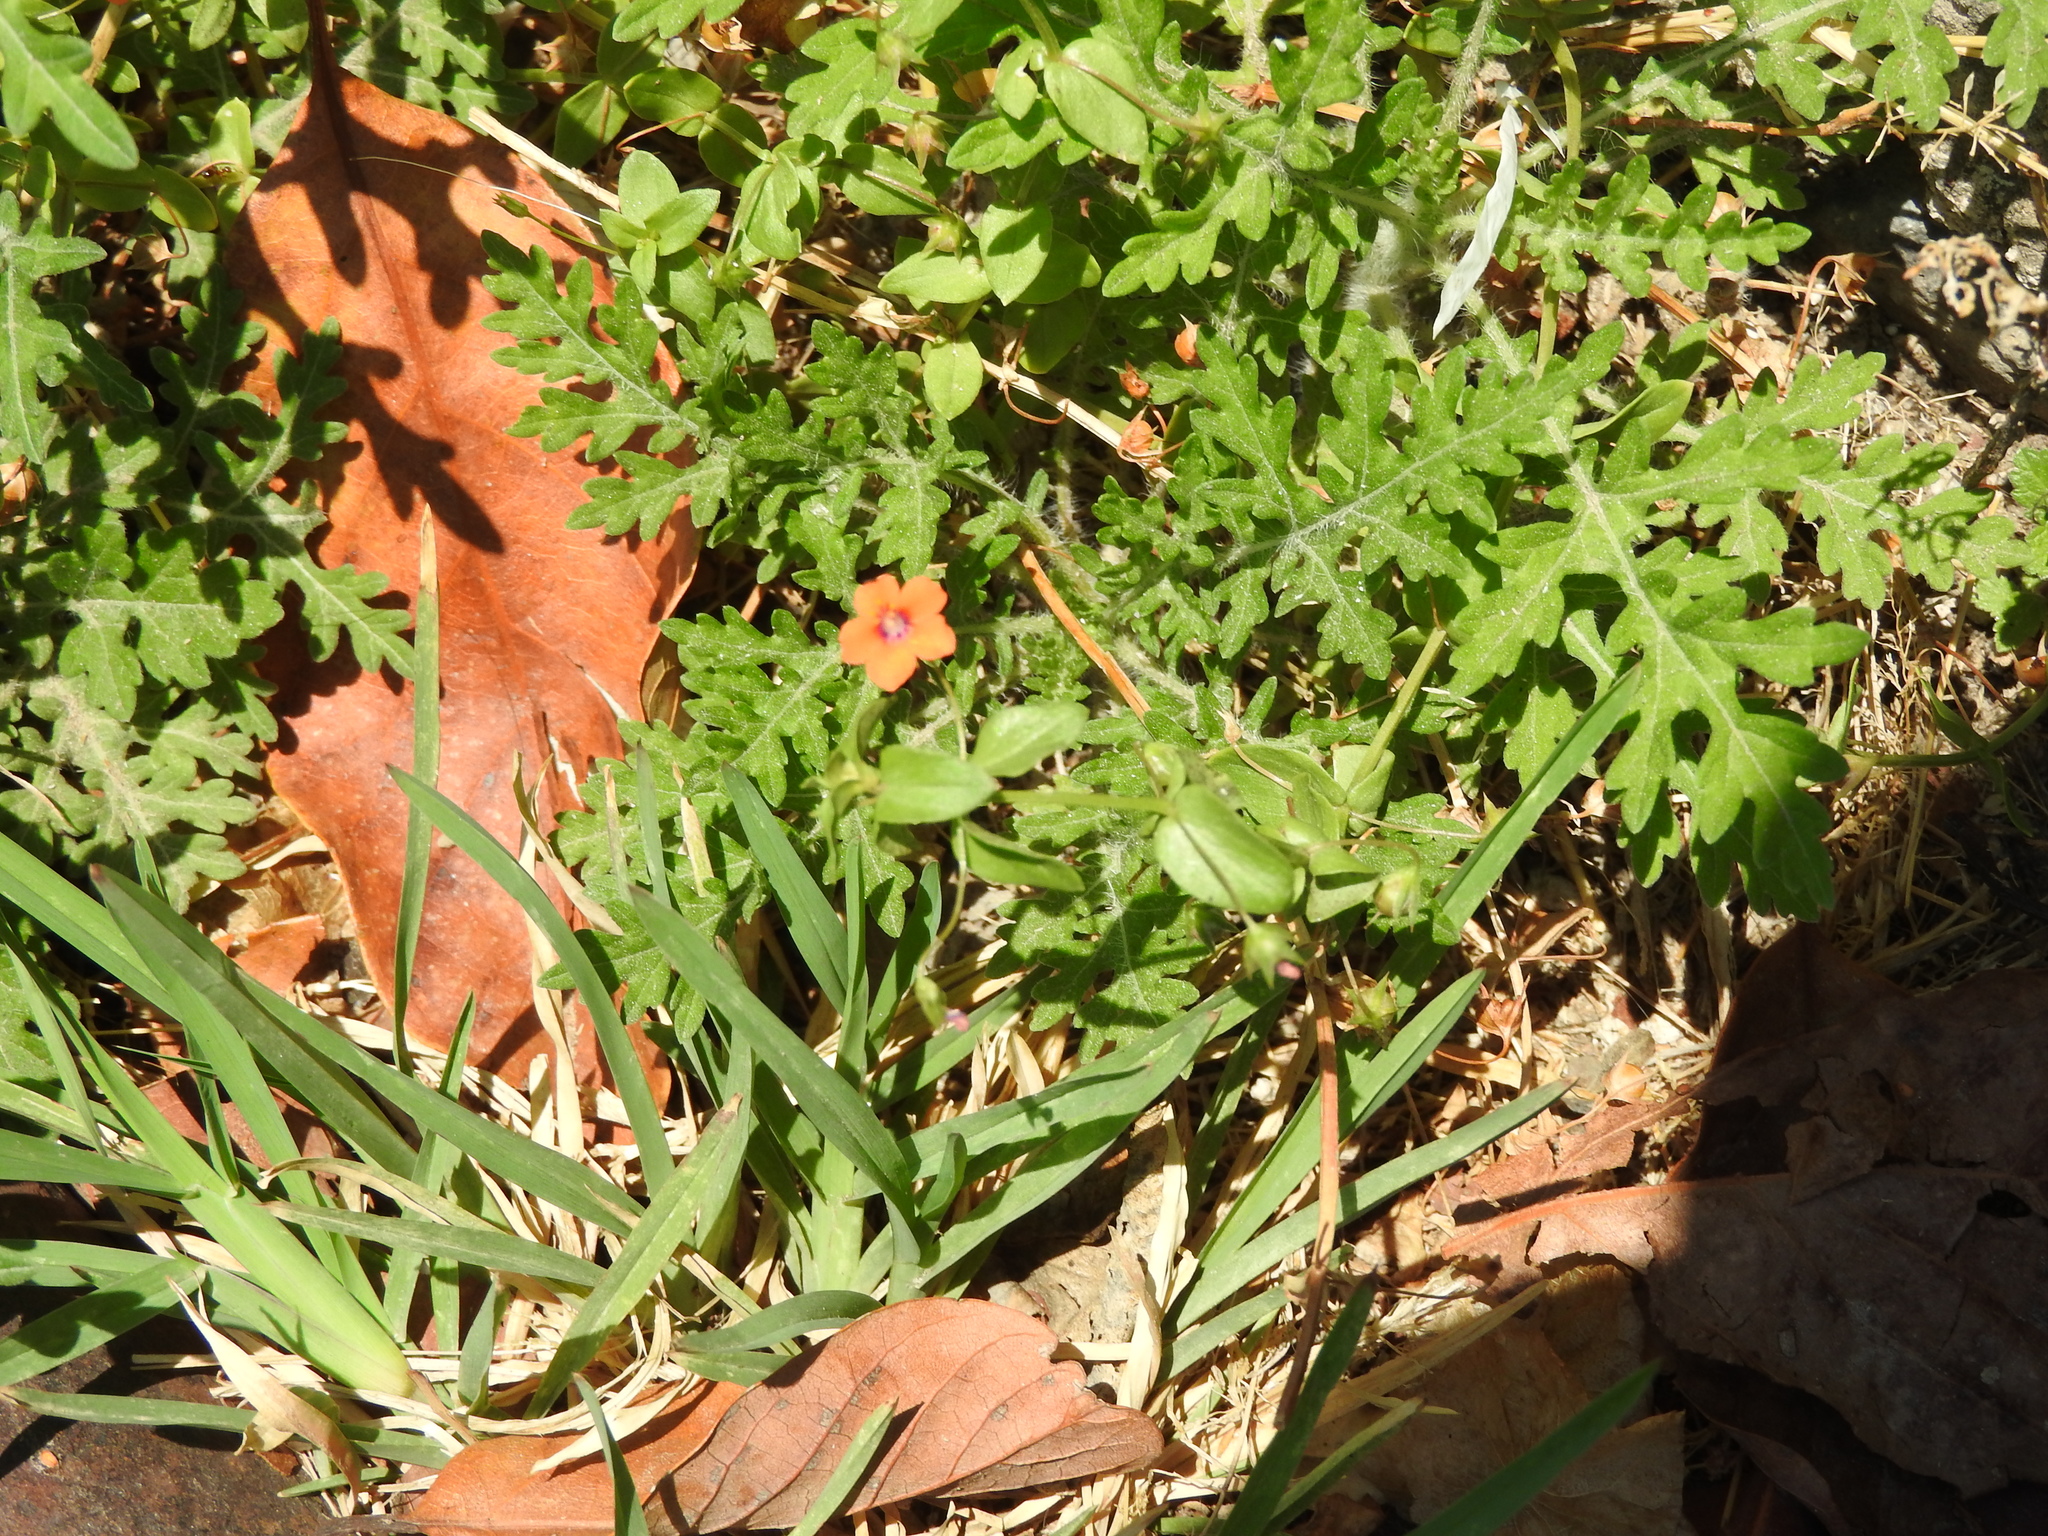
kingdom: Plantae
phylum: Tracheophyta
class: Magnoliopsida
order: Ericales
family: Primulaceae
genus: Lysimachia
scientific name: Lysimachia arvensis
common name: Scarlet pimpernel
